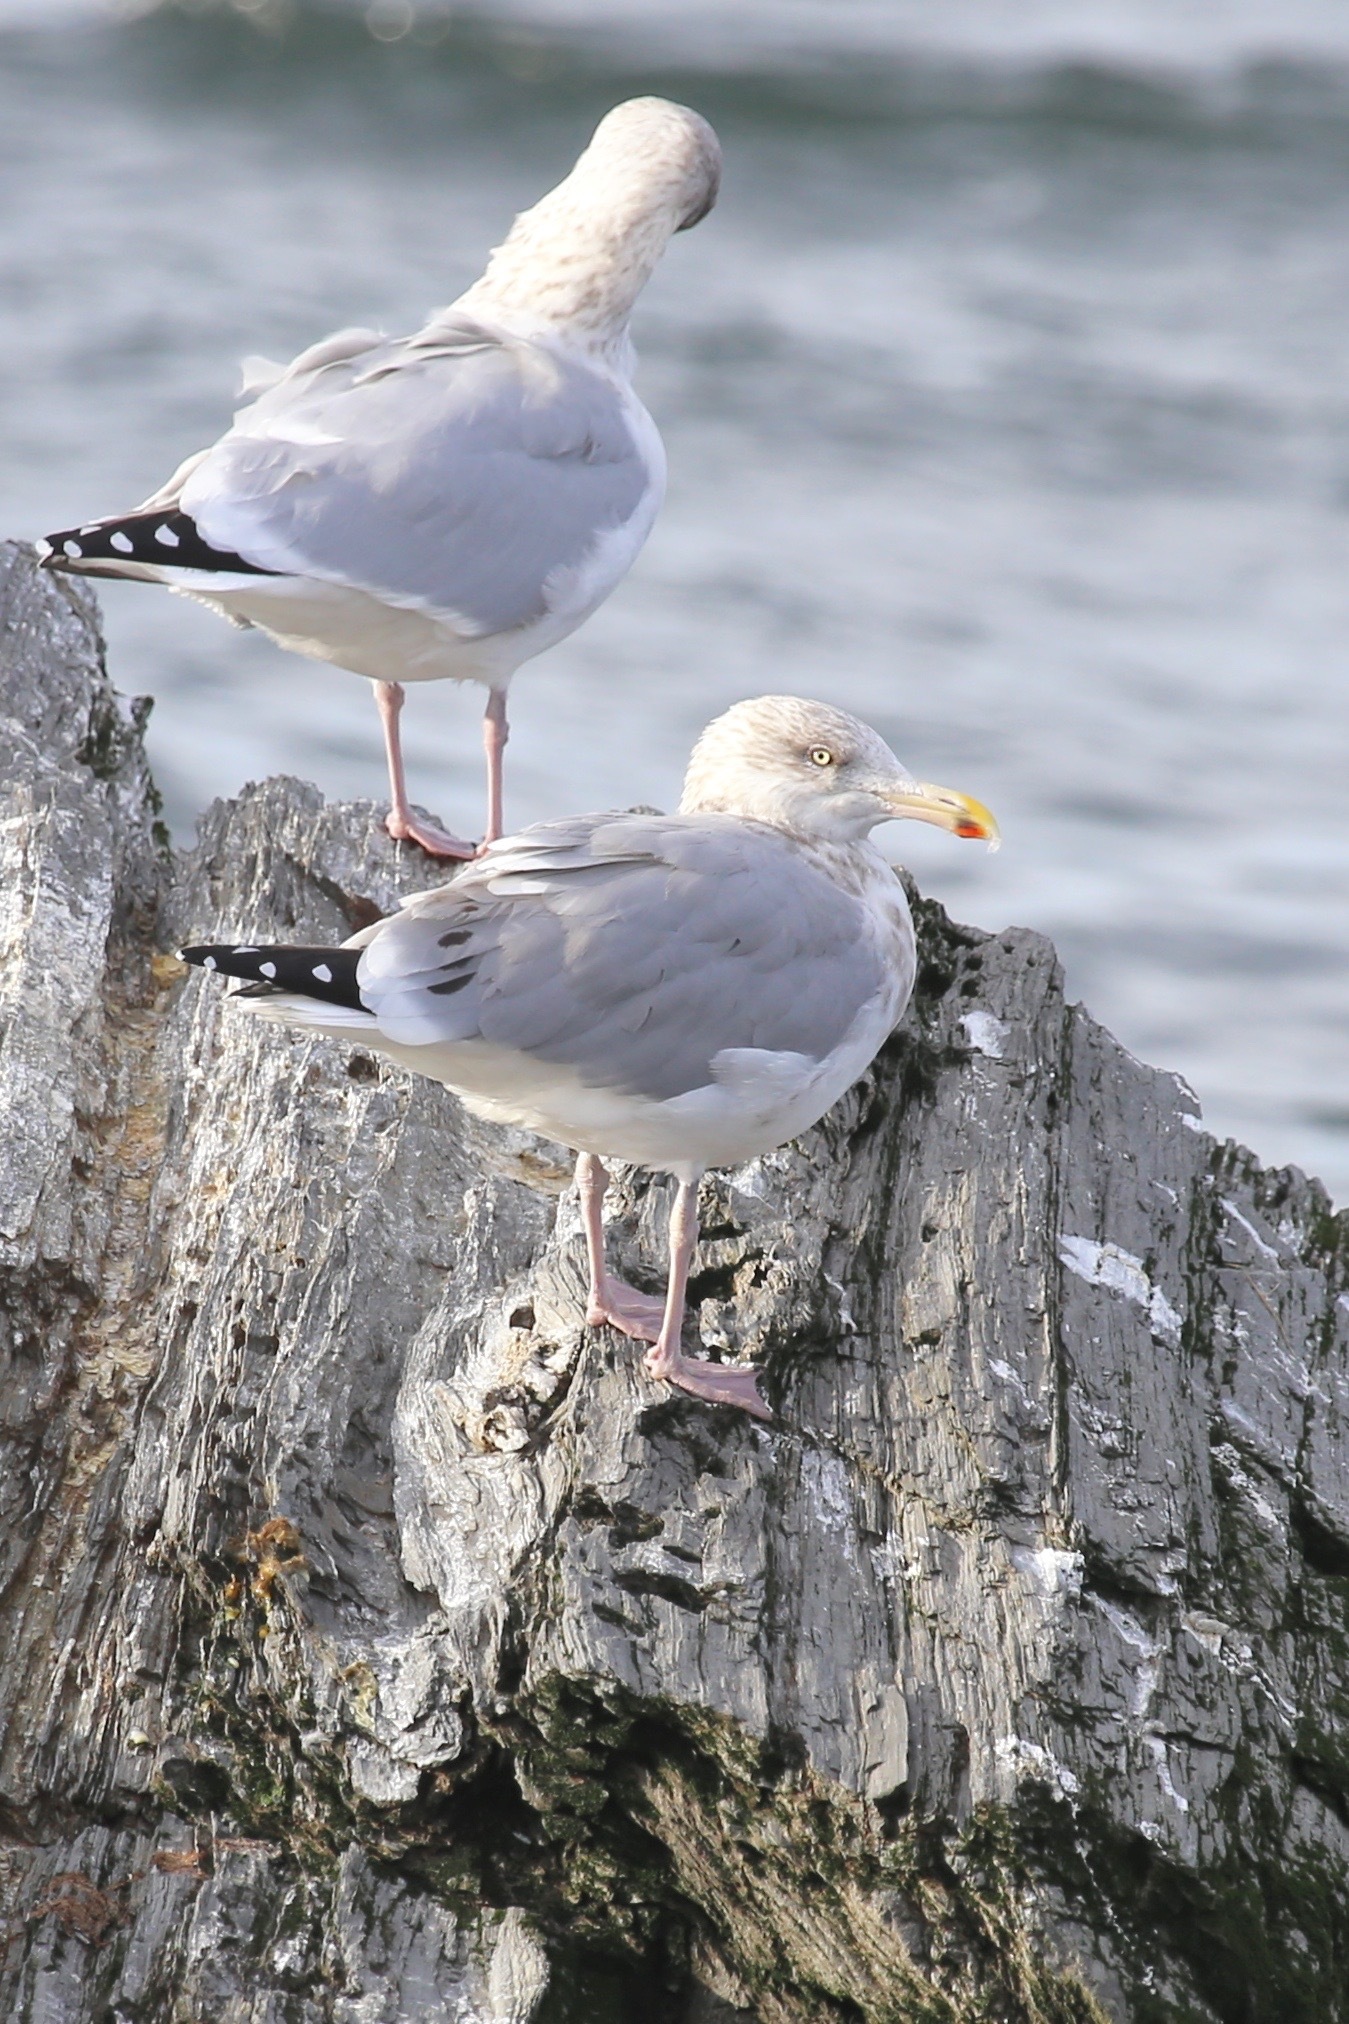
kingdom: Animalia
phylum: Chordata
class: Aves
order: Charadriiformes
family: Laridae
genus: Larus
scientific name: Larus argentatus
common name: Herring gull
